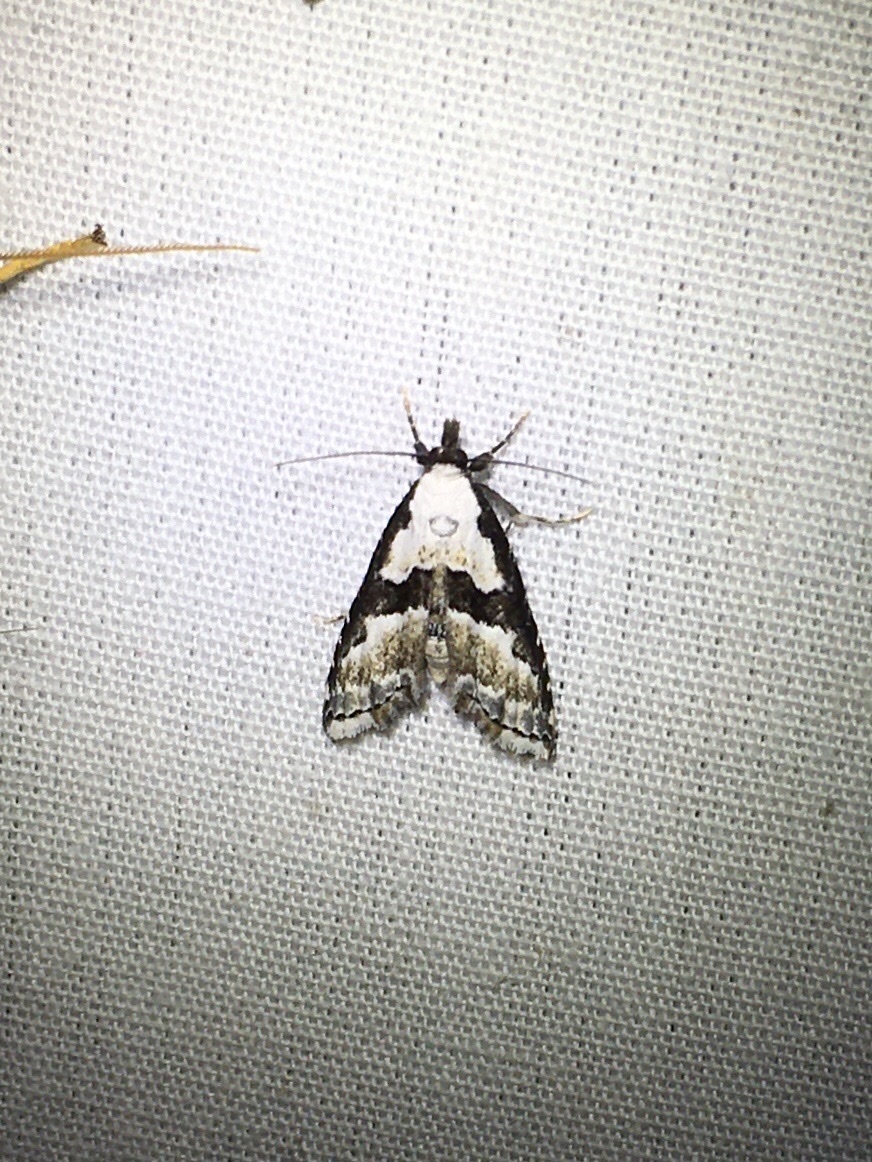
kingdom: Animalia
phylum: Arthropoda
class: Insecta
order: Lepidoptera
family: Noctuidae
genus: Nigetia
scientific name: Nigetia formosalis
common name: Thin-winged owlet
